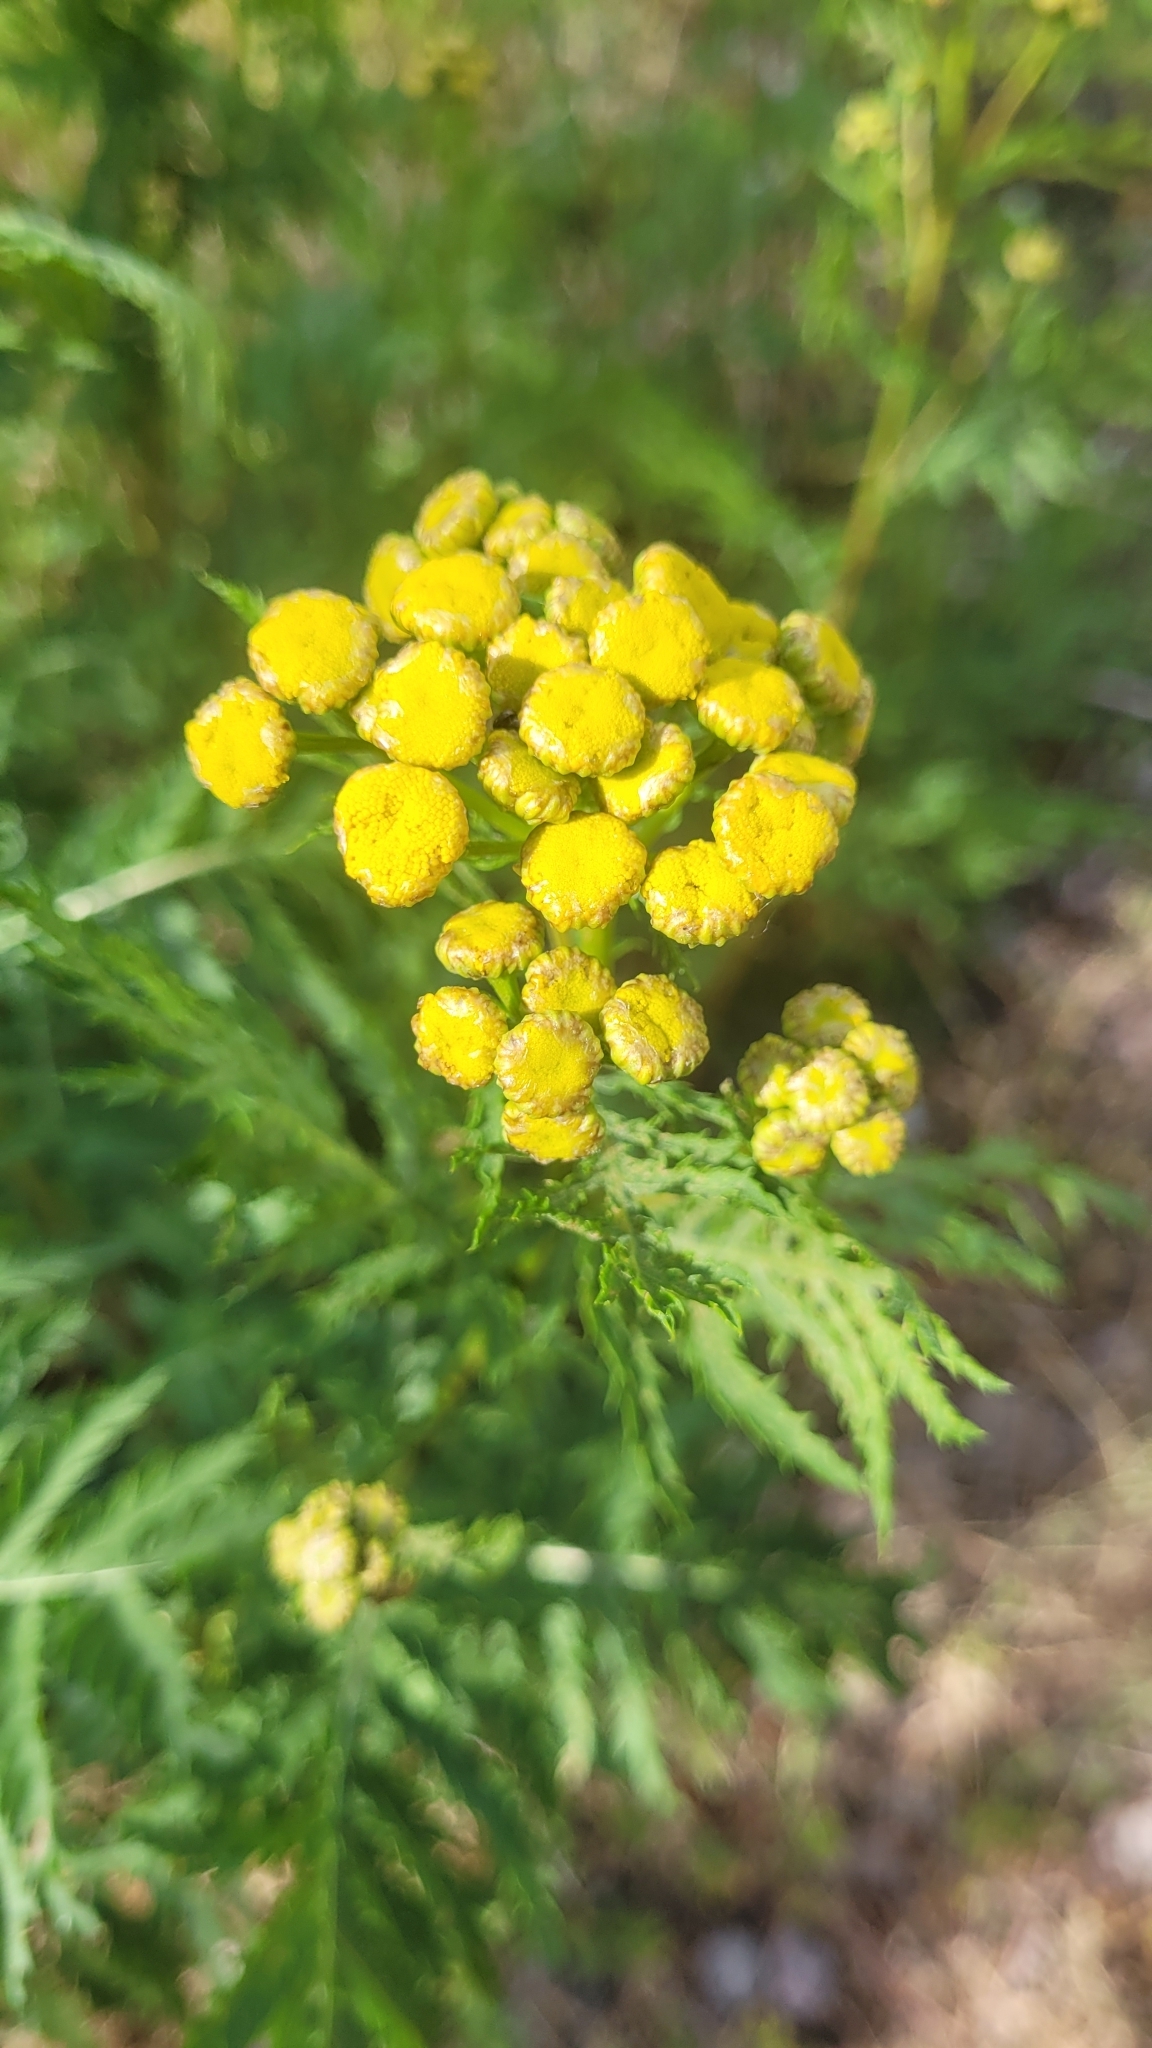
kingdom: Plantae
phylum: Tracheophyta
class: Magnoliopsida
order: Asterales
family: Asteraceae
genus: Tanacetum
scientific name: Tanacetum vulgare
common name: Common tansy
